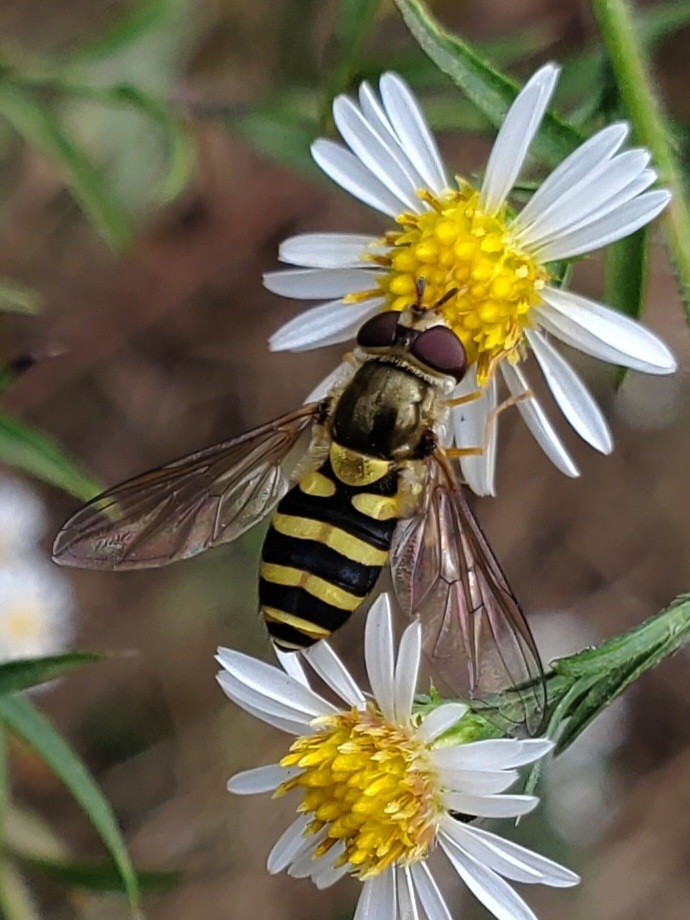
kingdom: Animalia
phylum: Arthropoda
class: Insecta
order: Diptera
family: Syrphidae
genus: Syrphus
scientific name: Syrphus rectus
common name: Yellow-legged flower fly
